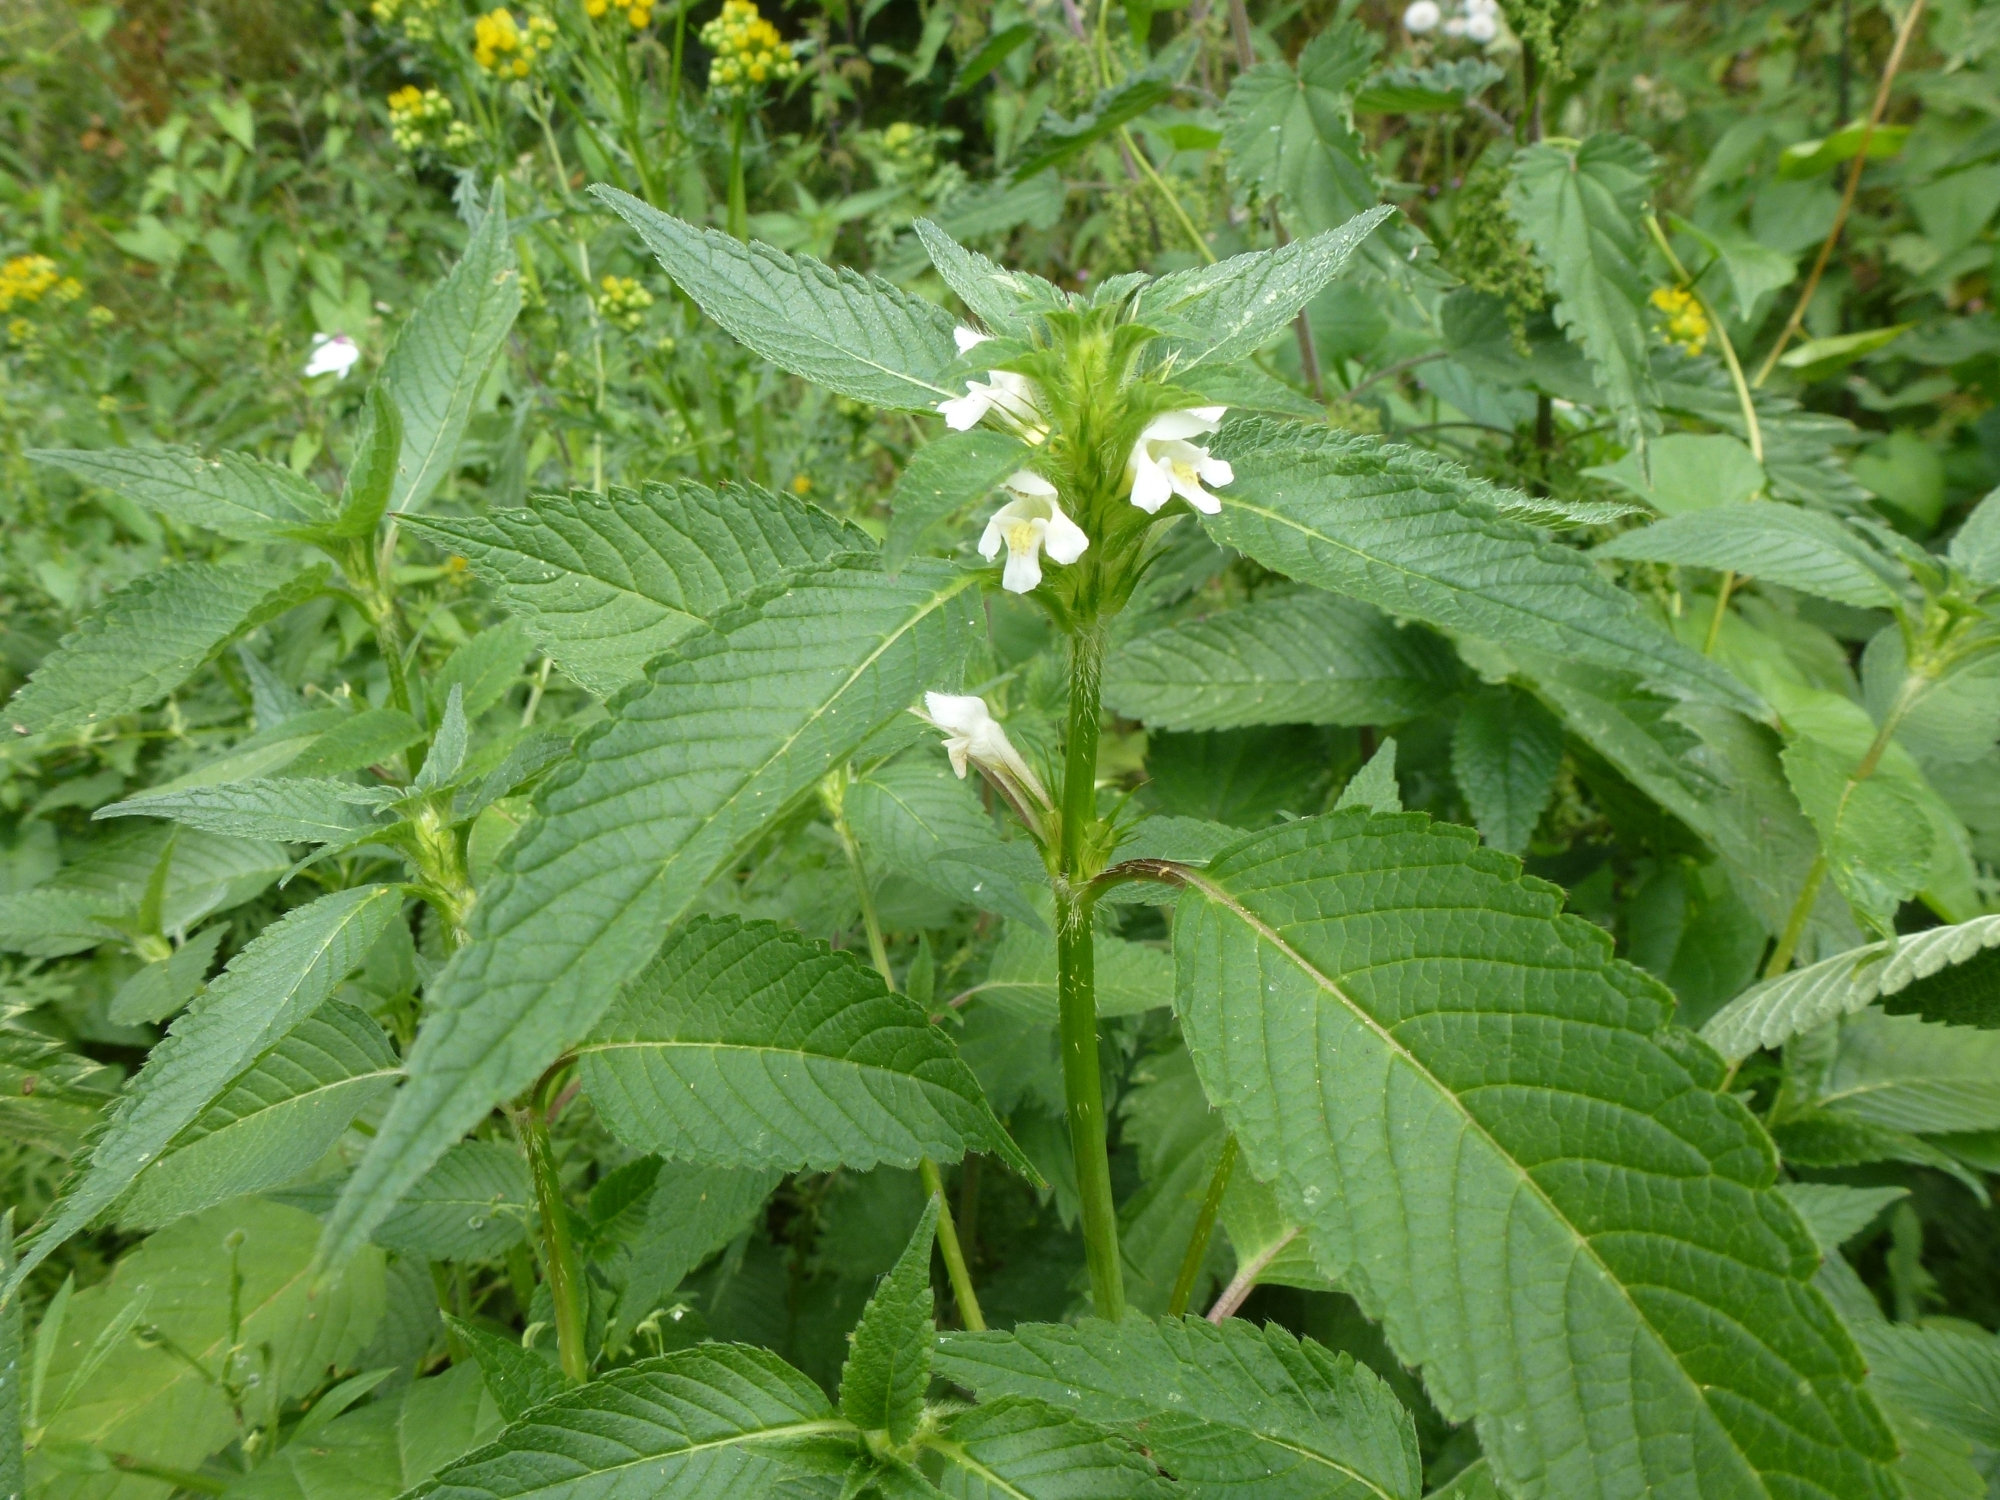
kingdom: Plantae
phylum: Tracheophyta
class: Magnoliopsida
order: Lamiales
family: Lamiaceae
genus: Galeopsis
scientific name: Galeopsis tetrahit
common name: Common hemp-nettle
